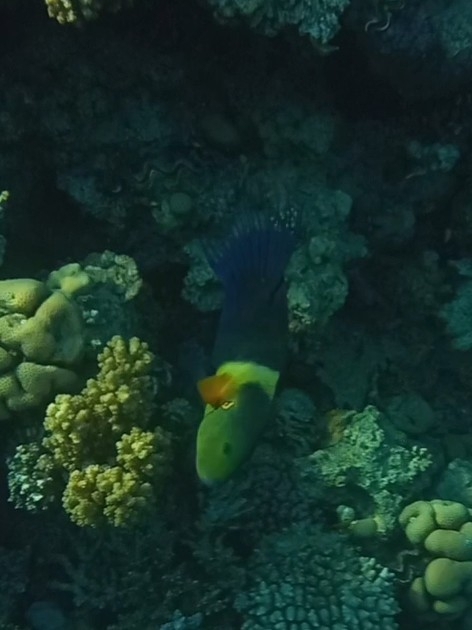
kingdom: Animalia
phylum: Chordata
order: Perciformes
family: Labridae
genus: Cheilinus
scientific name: Cheilinus lunulatus
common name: Broomtail wrasse
